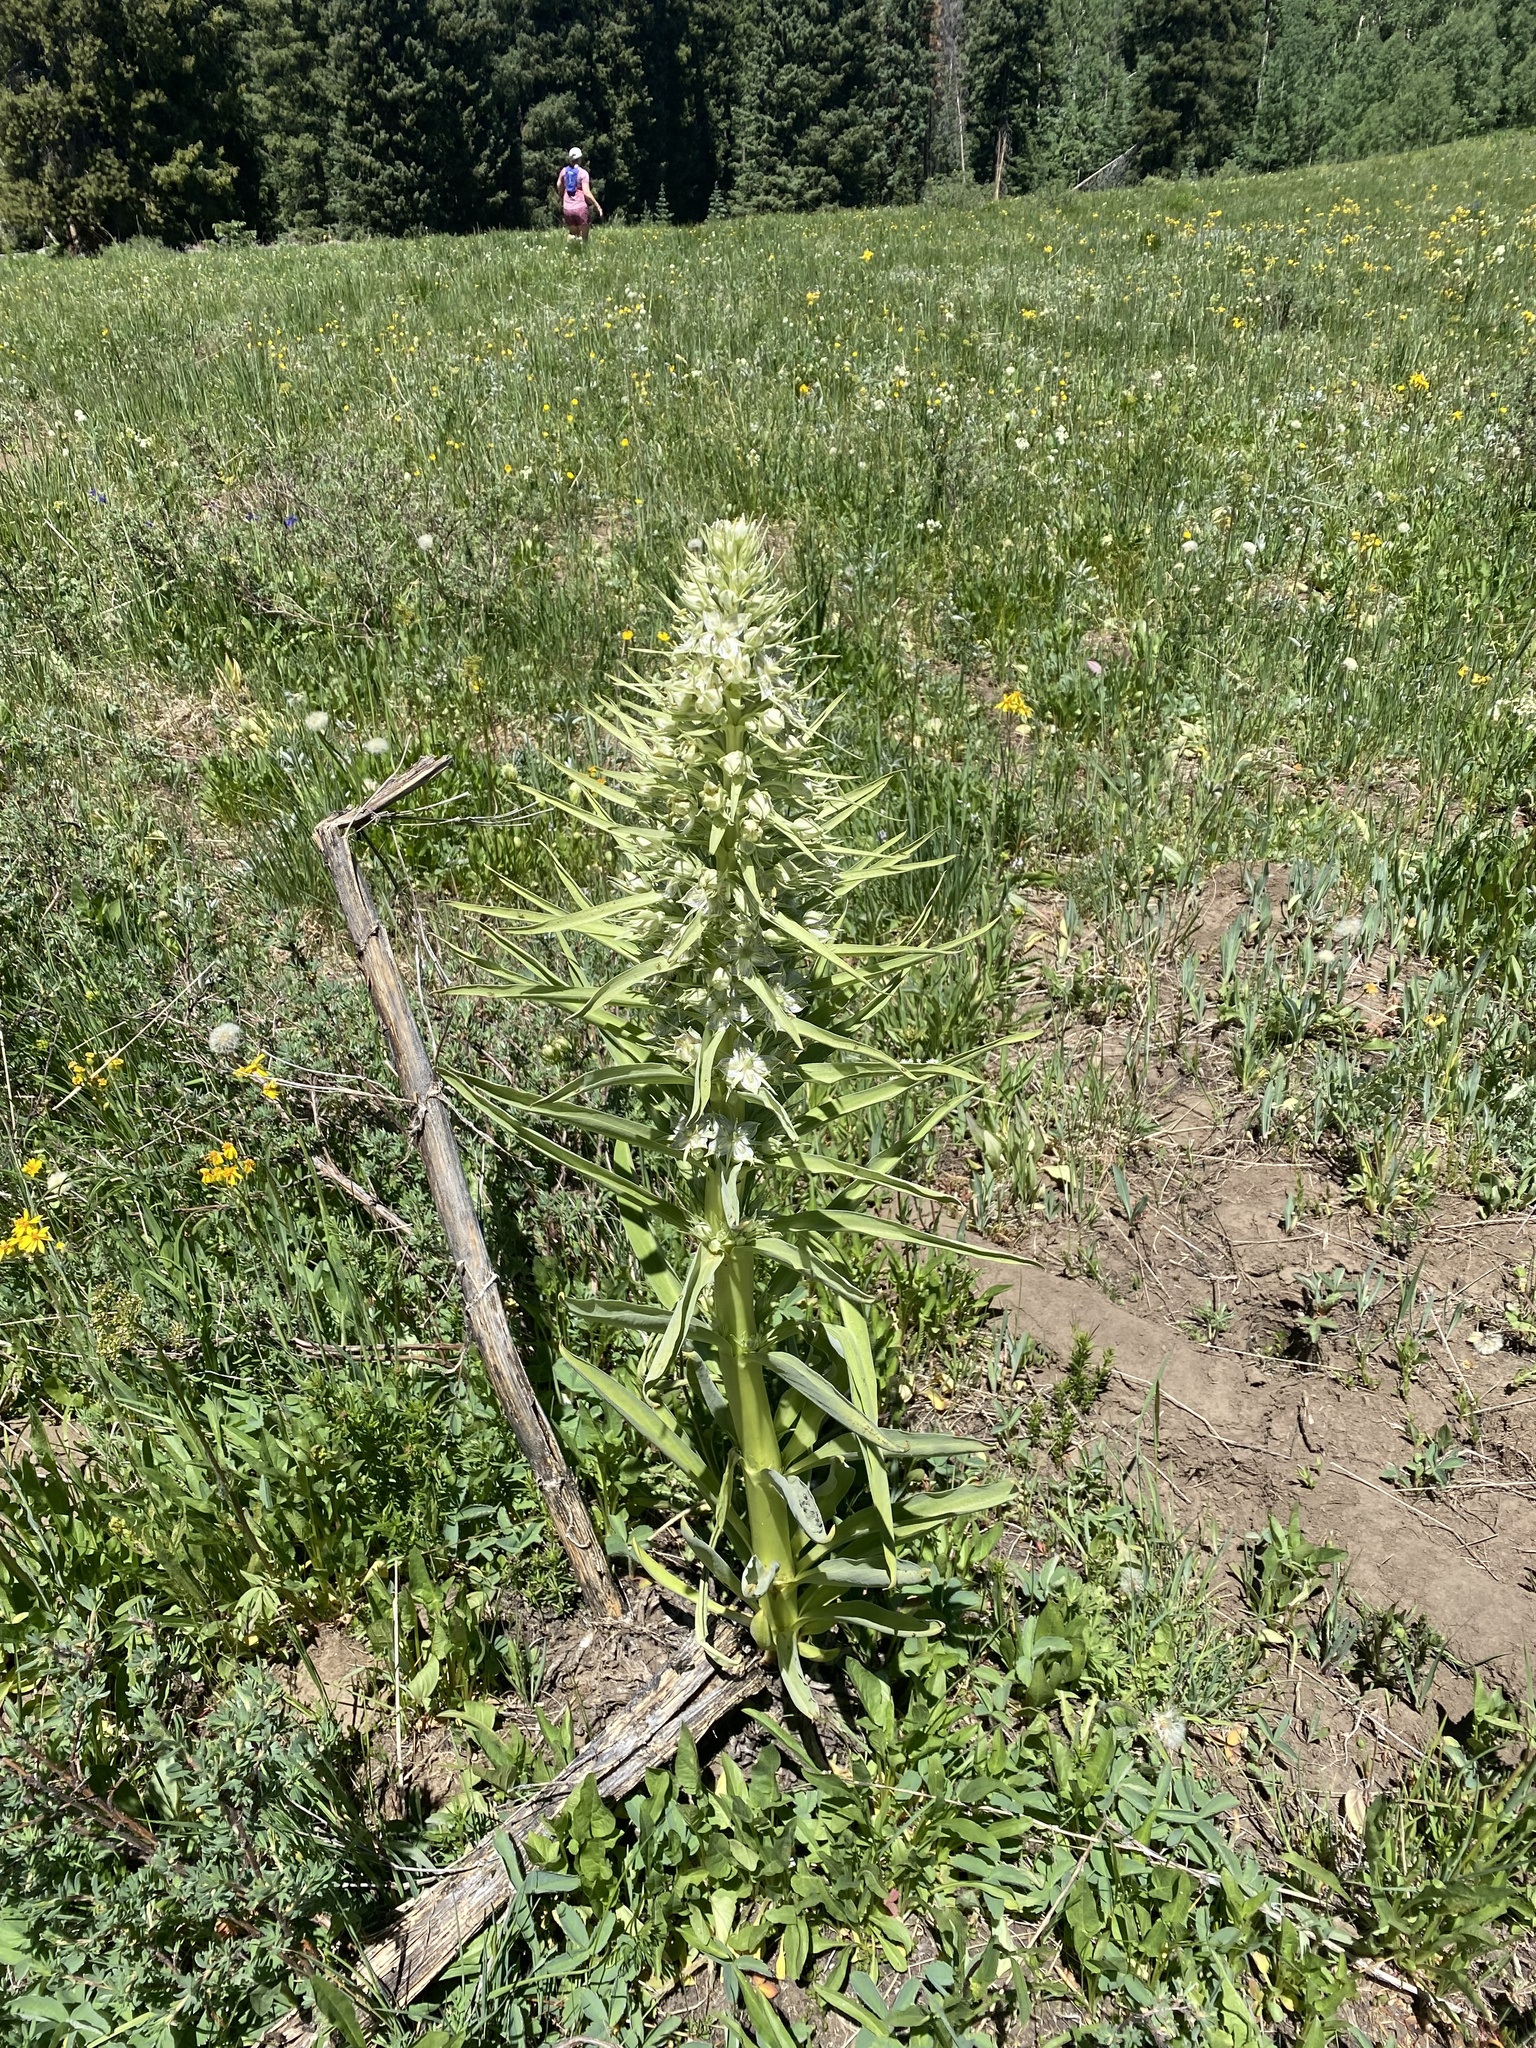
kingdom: Plantae
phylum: Tracheophyta
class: Magnoliopsida
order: Gentianales
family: Gentianaceae
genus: Frasera
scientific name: Frasera speciosa
